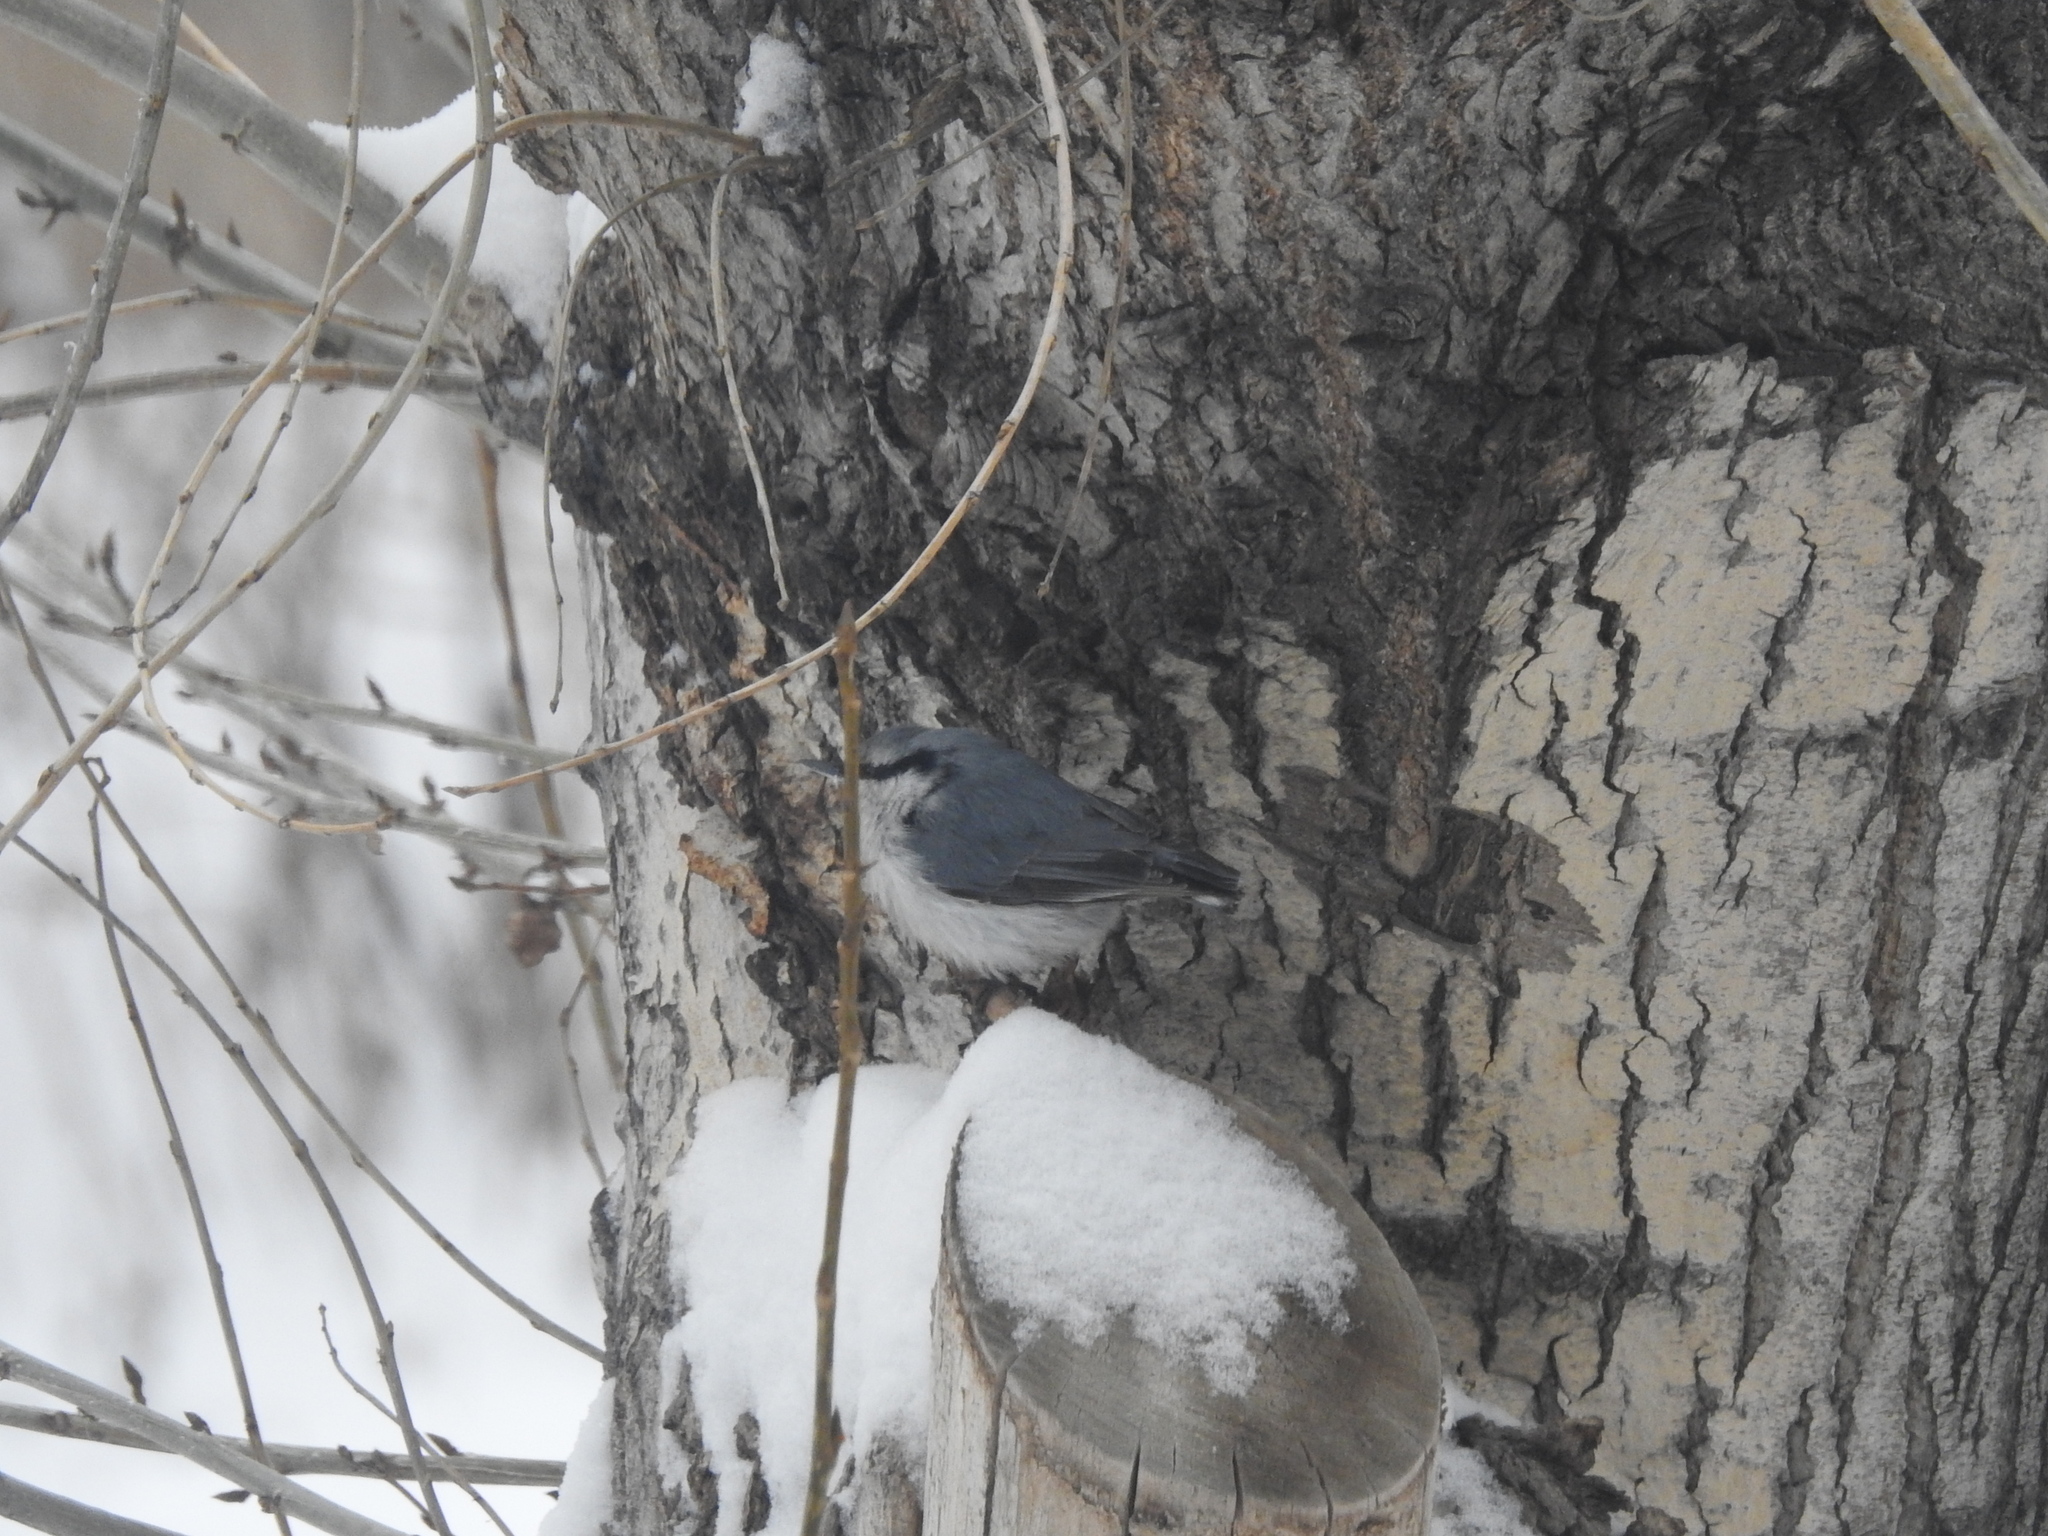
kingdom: Animalia
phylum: Chordata
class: Aves
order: Passeriformes
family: Sittidae
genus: Sitta
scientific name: Sitta europaea
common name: Eurasian nuthatch
